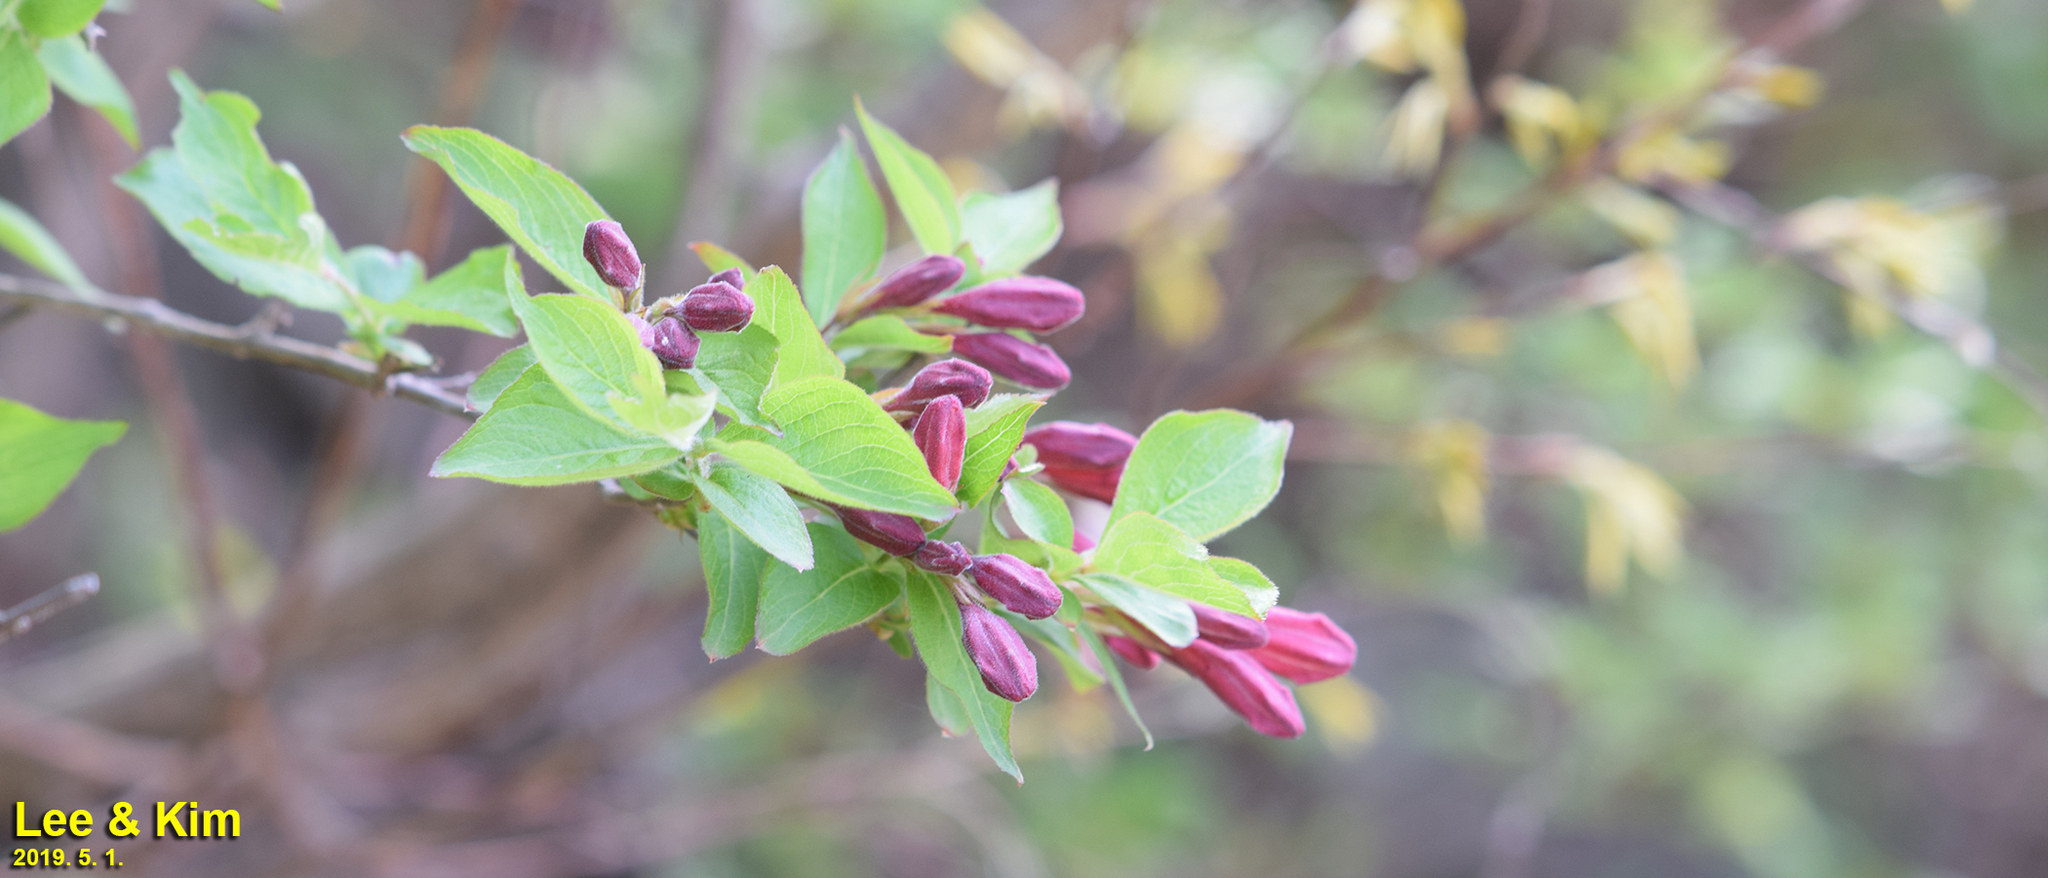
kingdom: Plantae
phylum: Tracheophyta
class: Magnoliopsida
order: Dipsacales
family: Caprifoliaceae
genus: Weigela
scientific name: Weigela florida
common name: Weigelia
